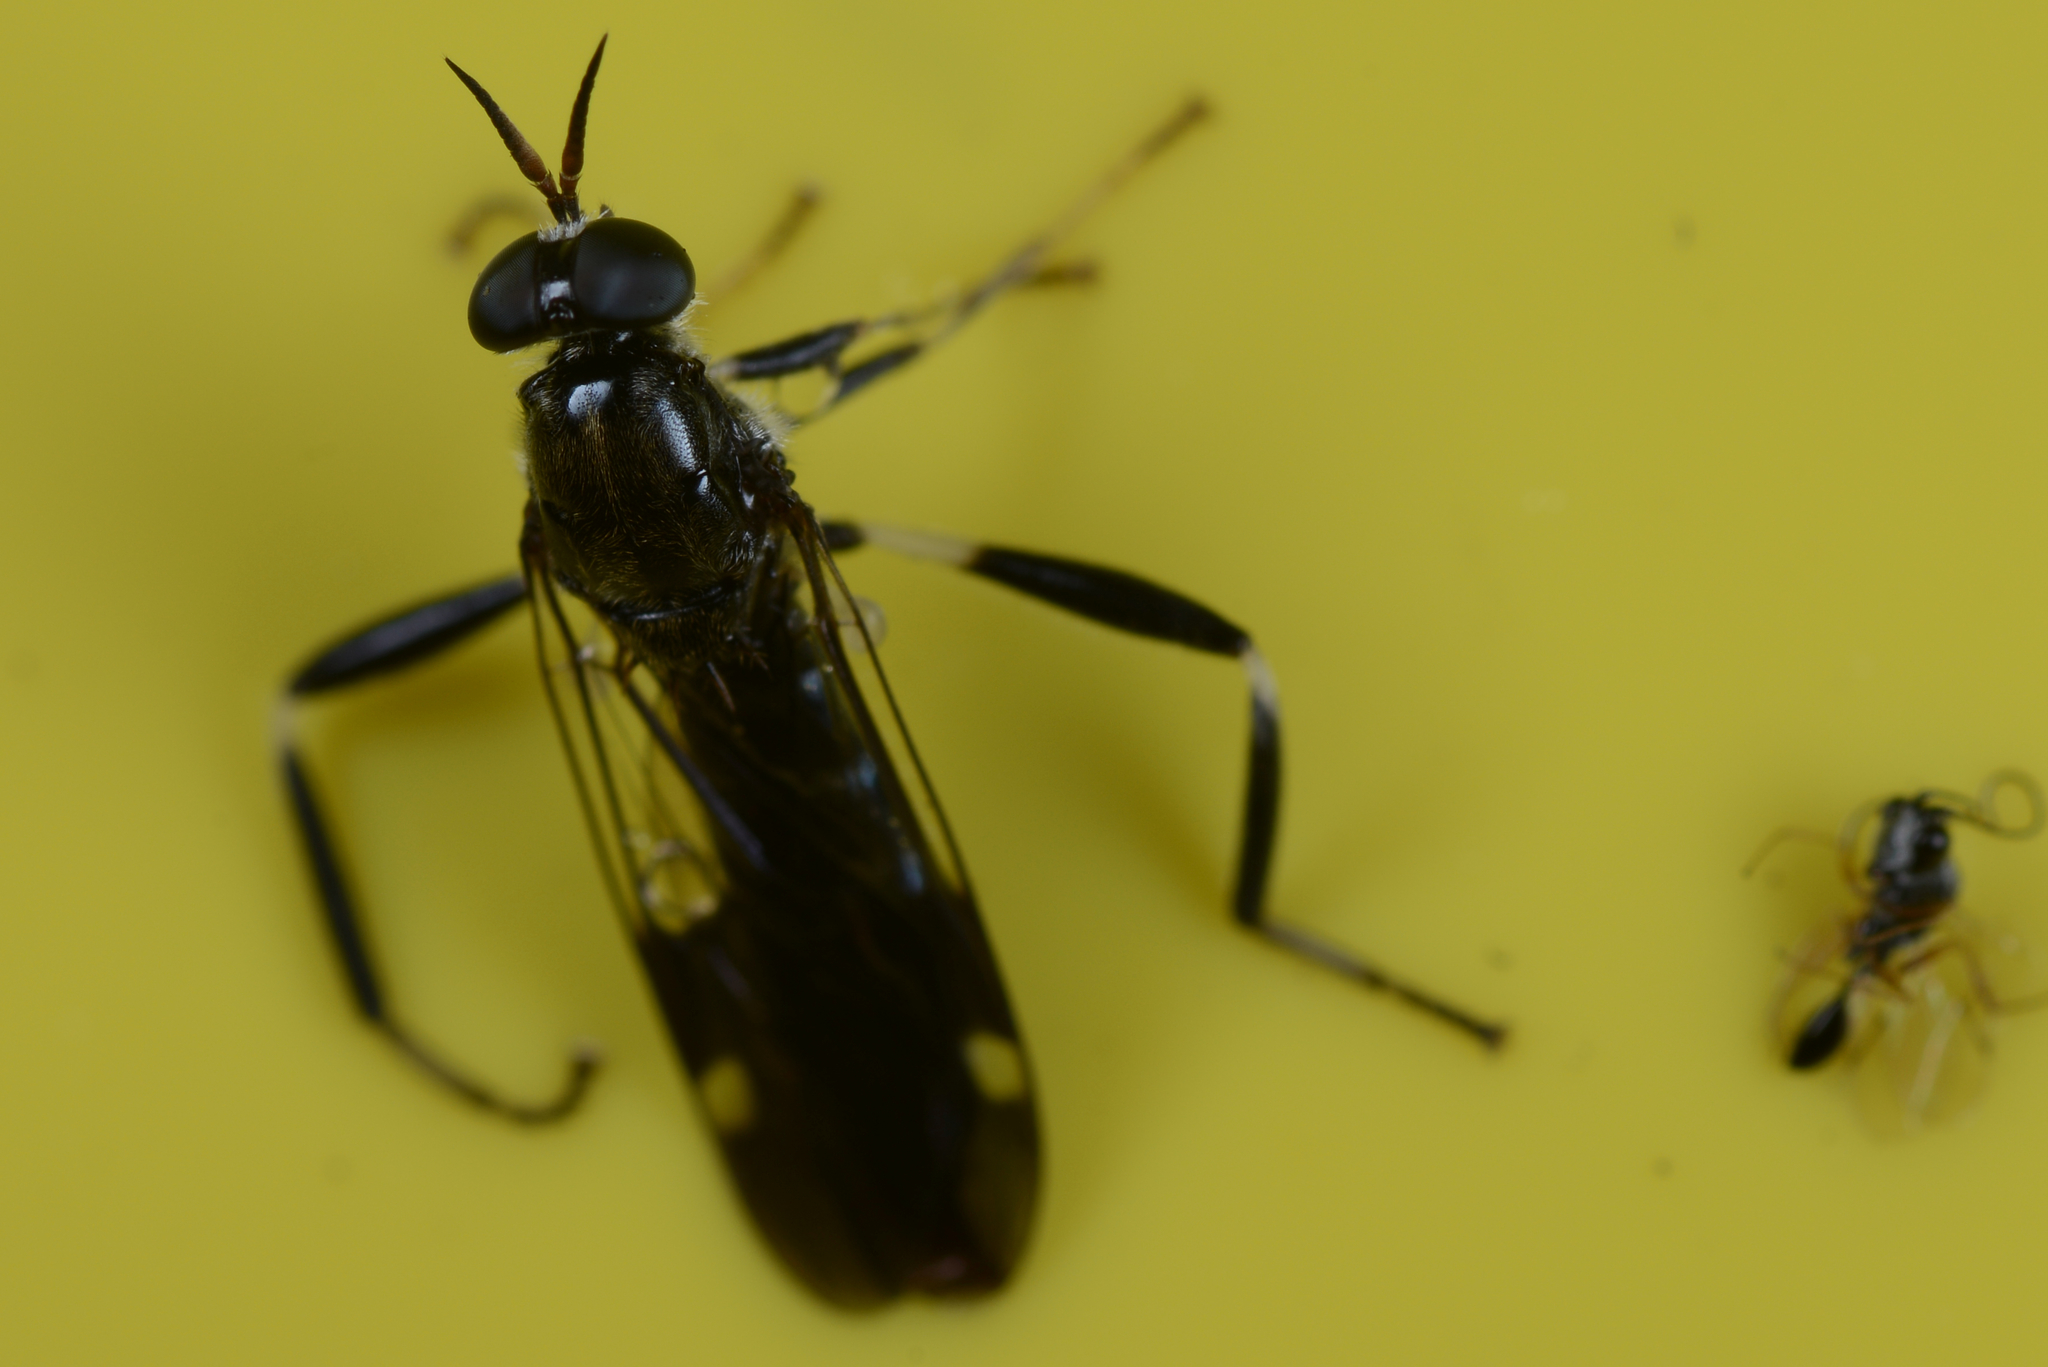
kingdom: Animalia
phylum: Arthropoda
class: Insecta
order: Diptera
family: Stratiomyidae
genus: Exaireta
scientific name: Exaireta spinigera
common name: Blue soldier fly
